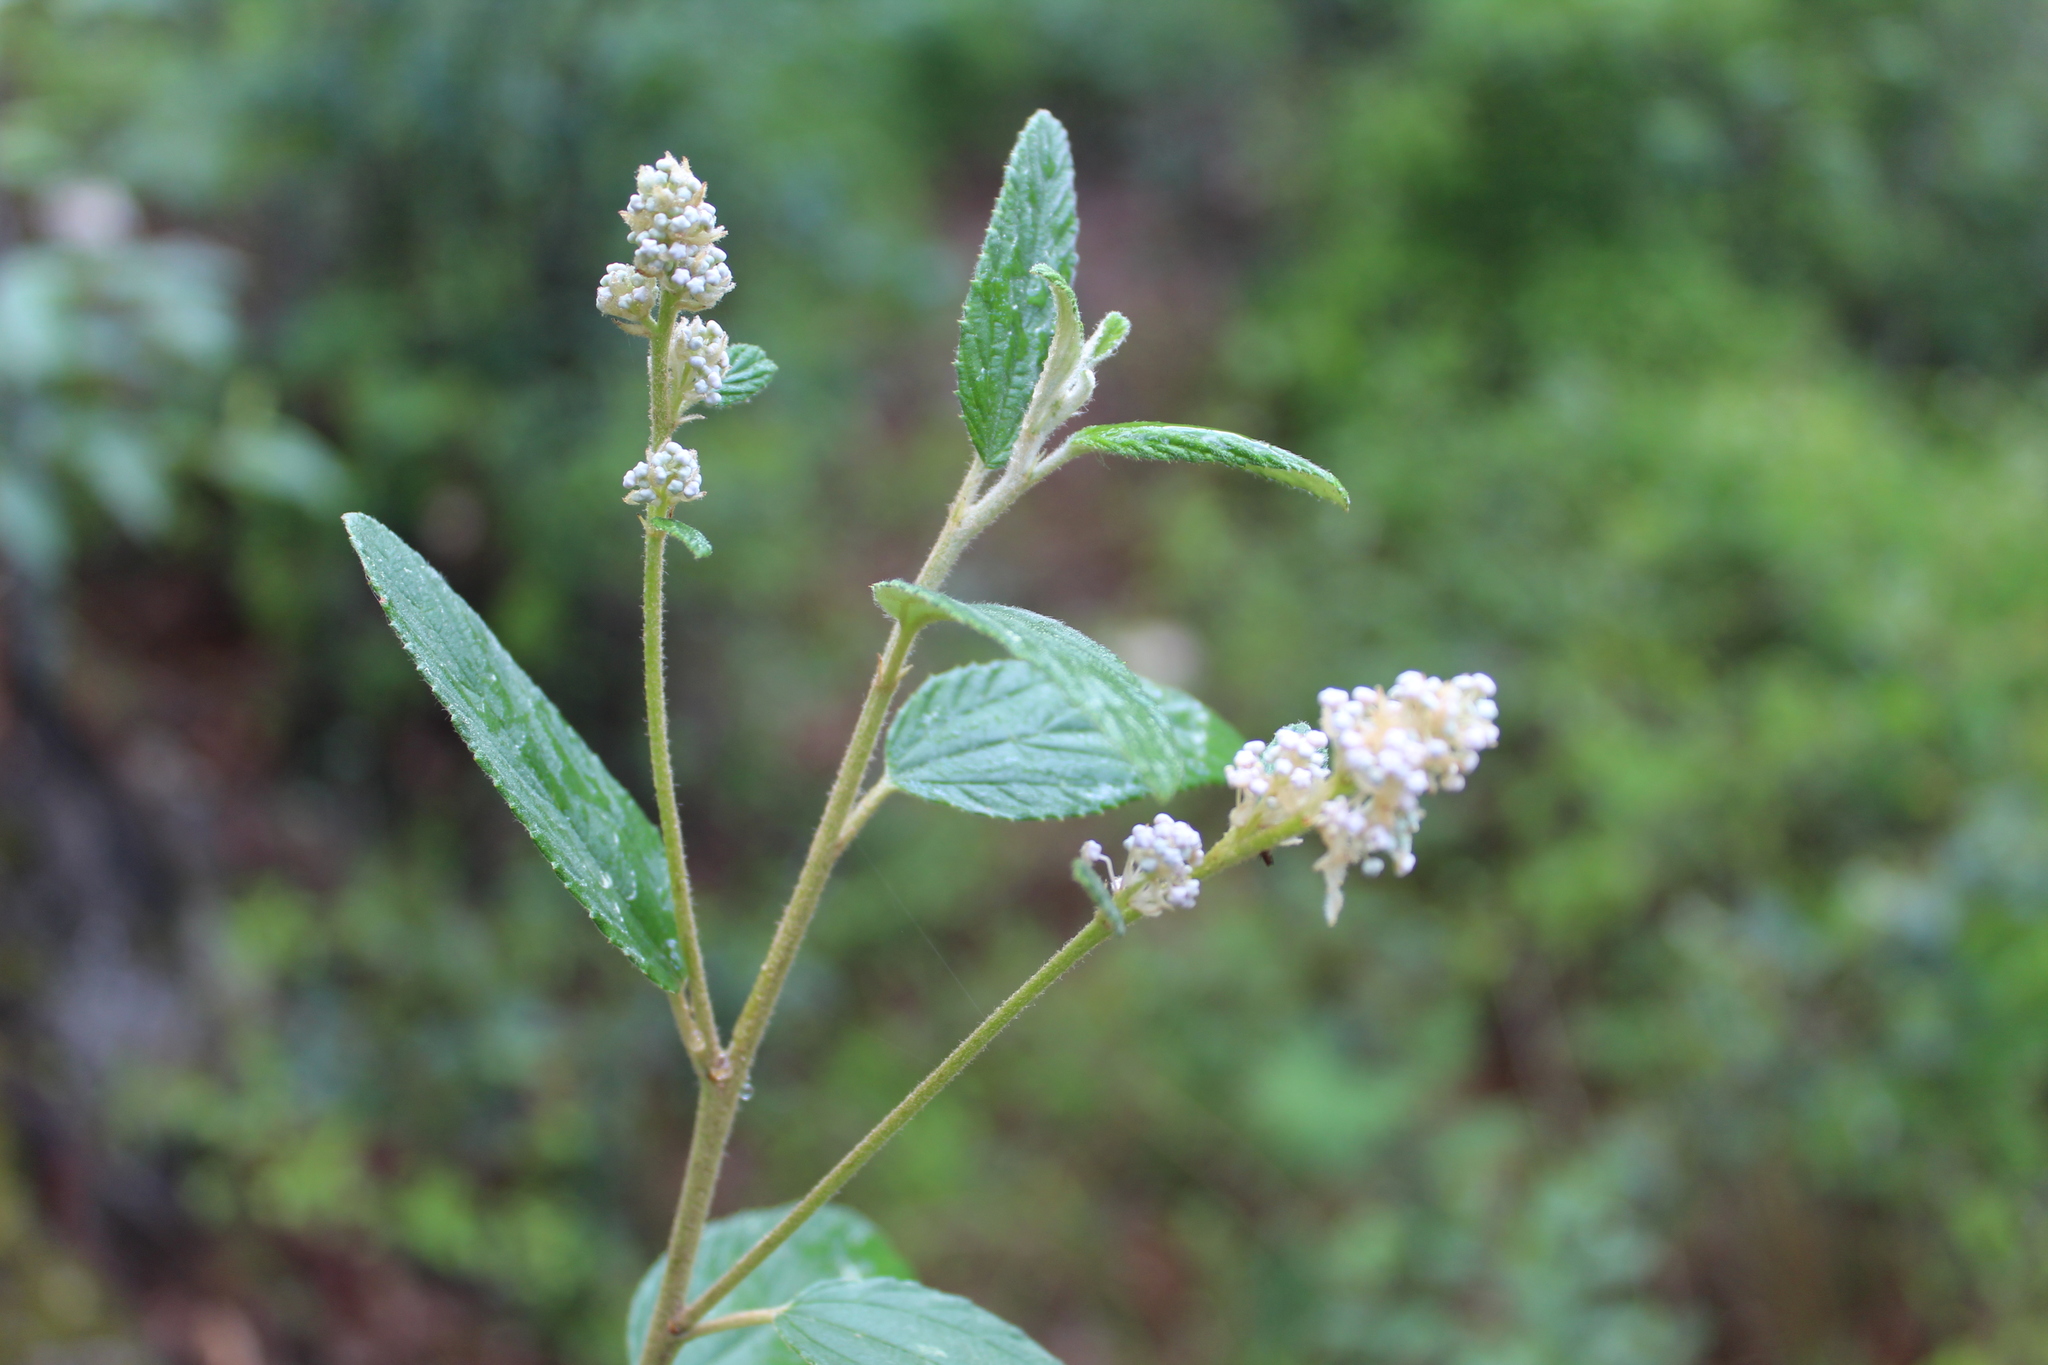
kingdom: Plantae
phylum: Tracheophyta
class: Magnoliopsida
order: Rosales
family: Rhamnaceae
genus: Ceanothus
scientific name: Ceanothus caeruleus
